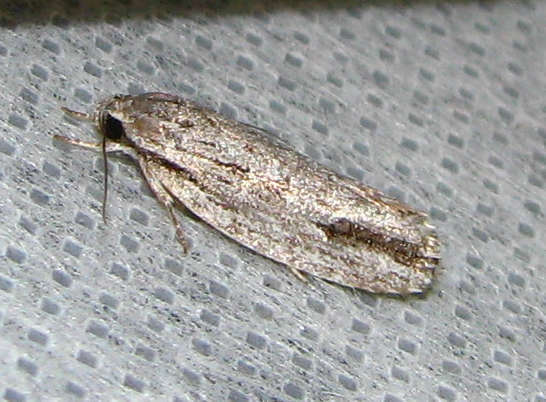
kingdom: Animalia
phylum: Arthropoda
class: Insecta
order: Lepidoptera
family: Depressariidae
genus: Agriophara
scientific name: Agriophara gravis
